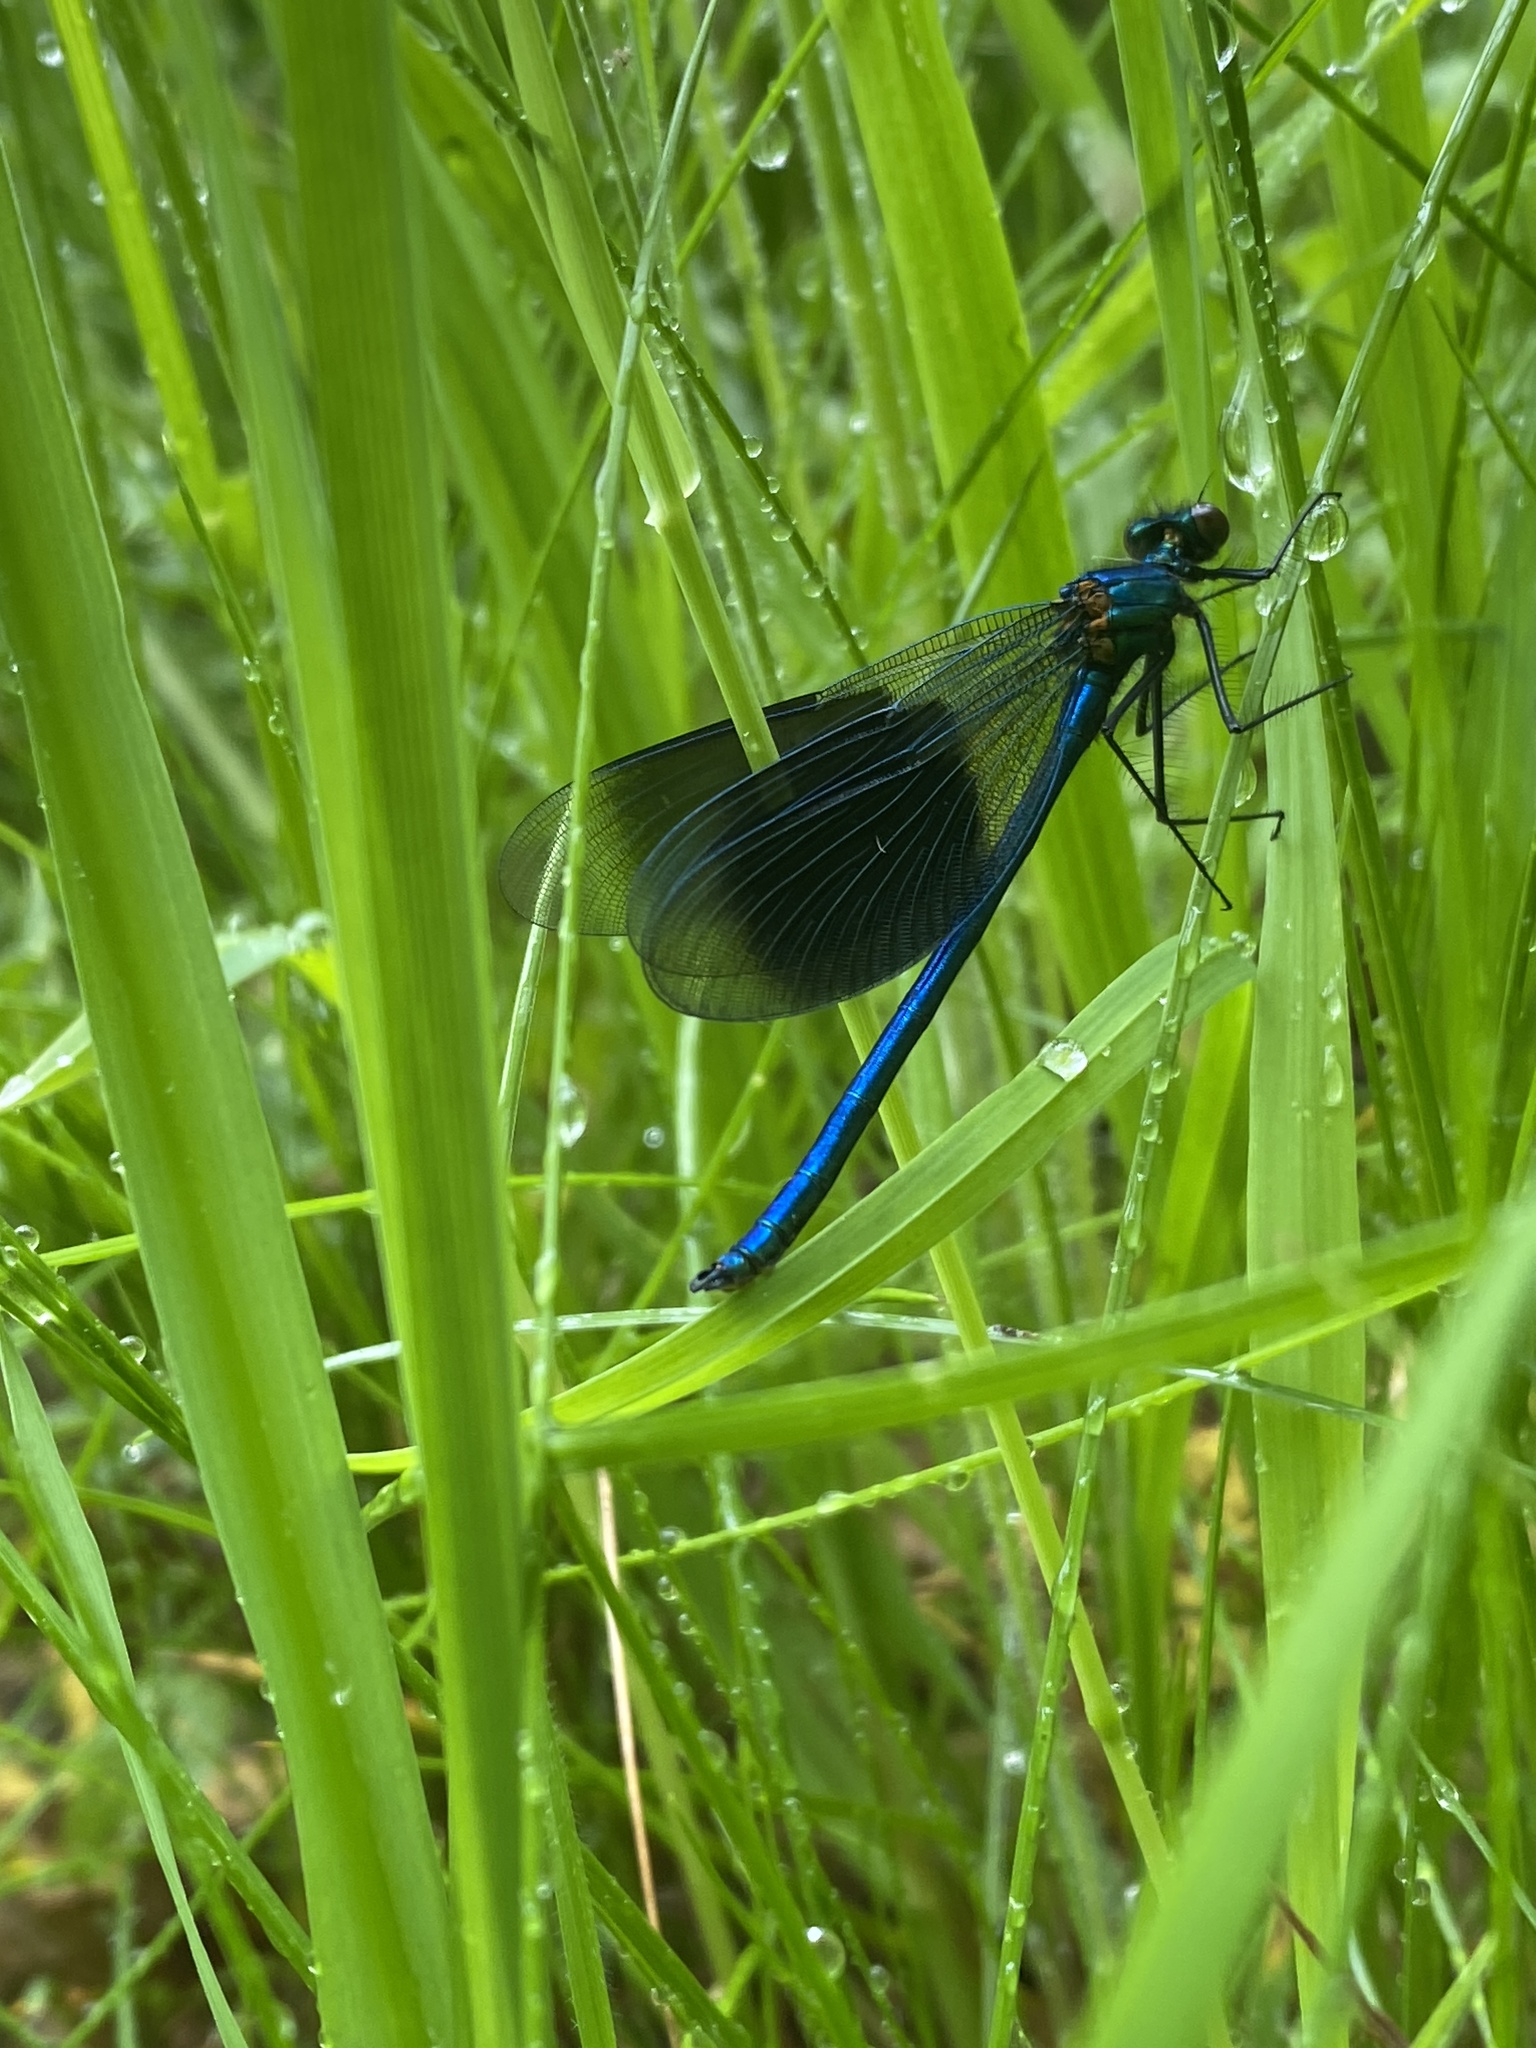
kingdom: Animalia
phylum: Arthropoda
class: Insecta
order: Odonata
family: Calopterygidae
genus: Calopteryx
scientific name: Calopteryx splendens
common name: Banded demoiselle
